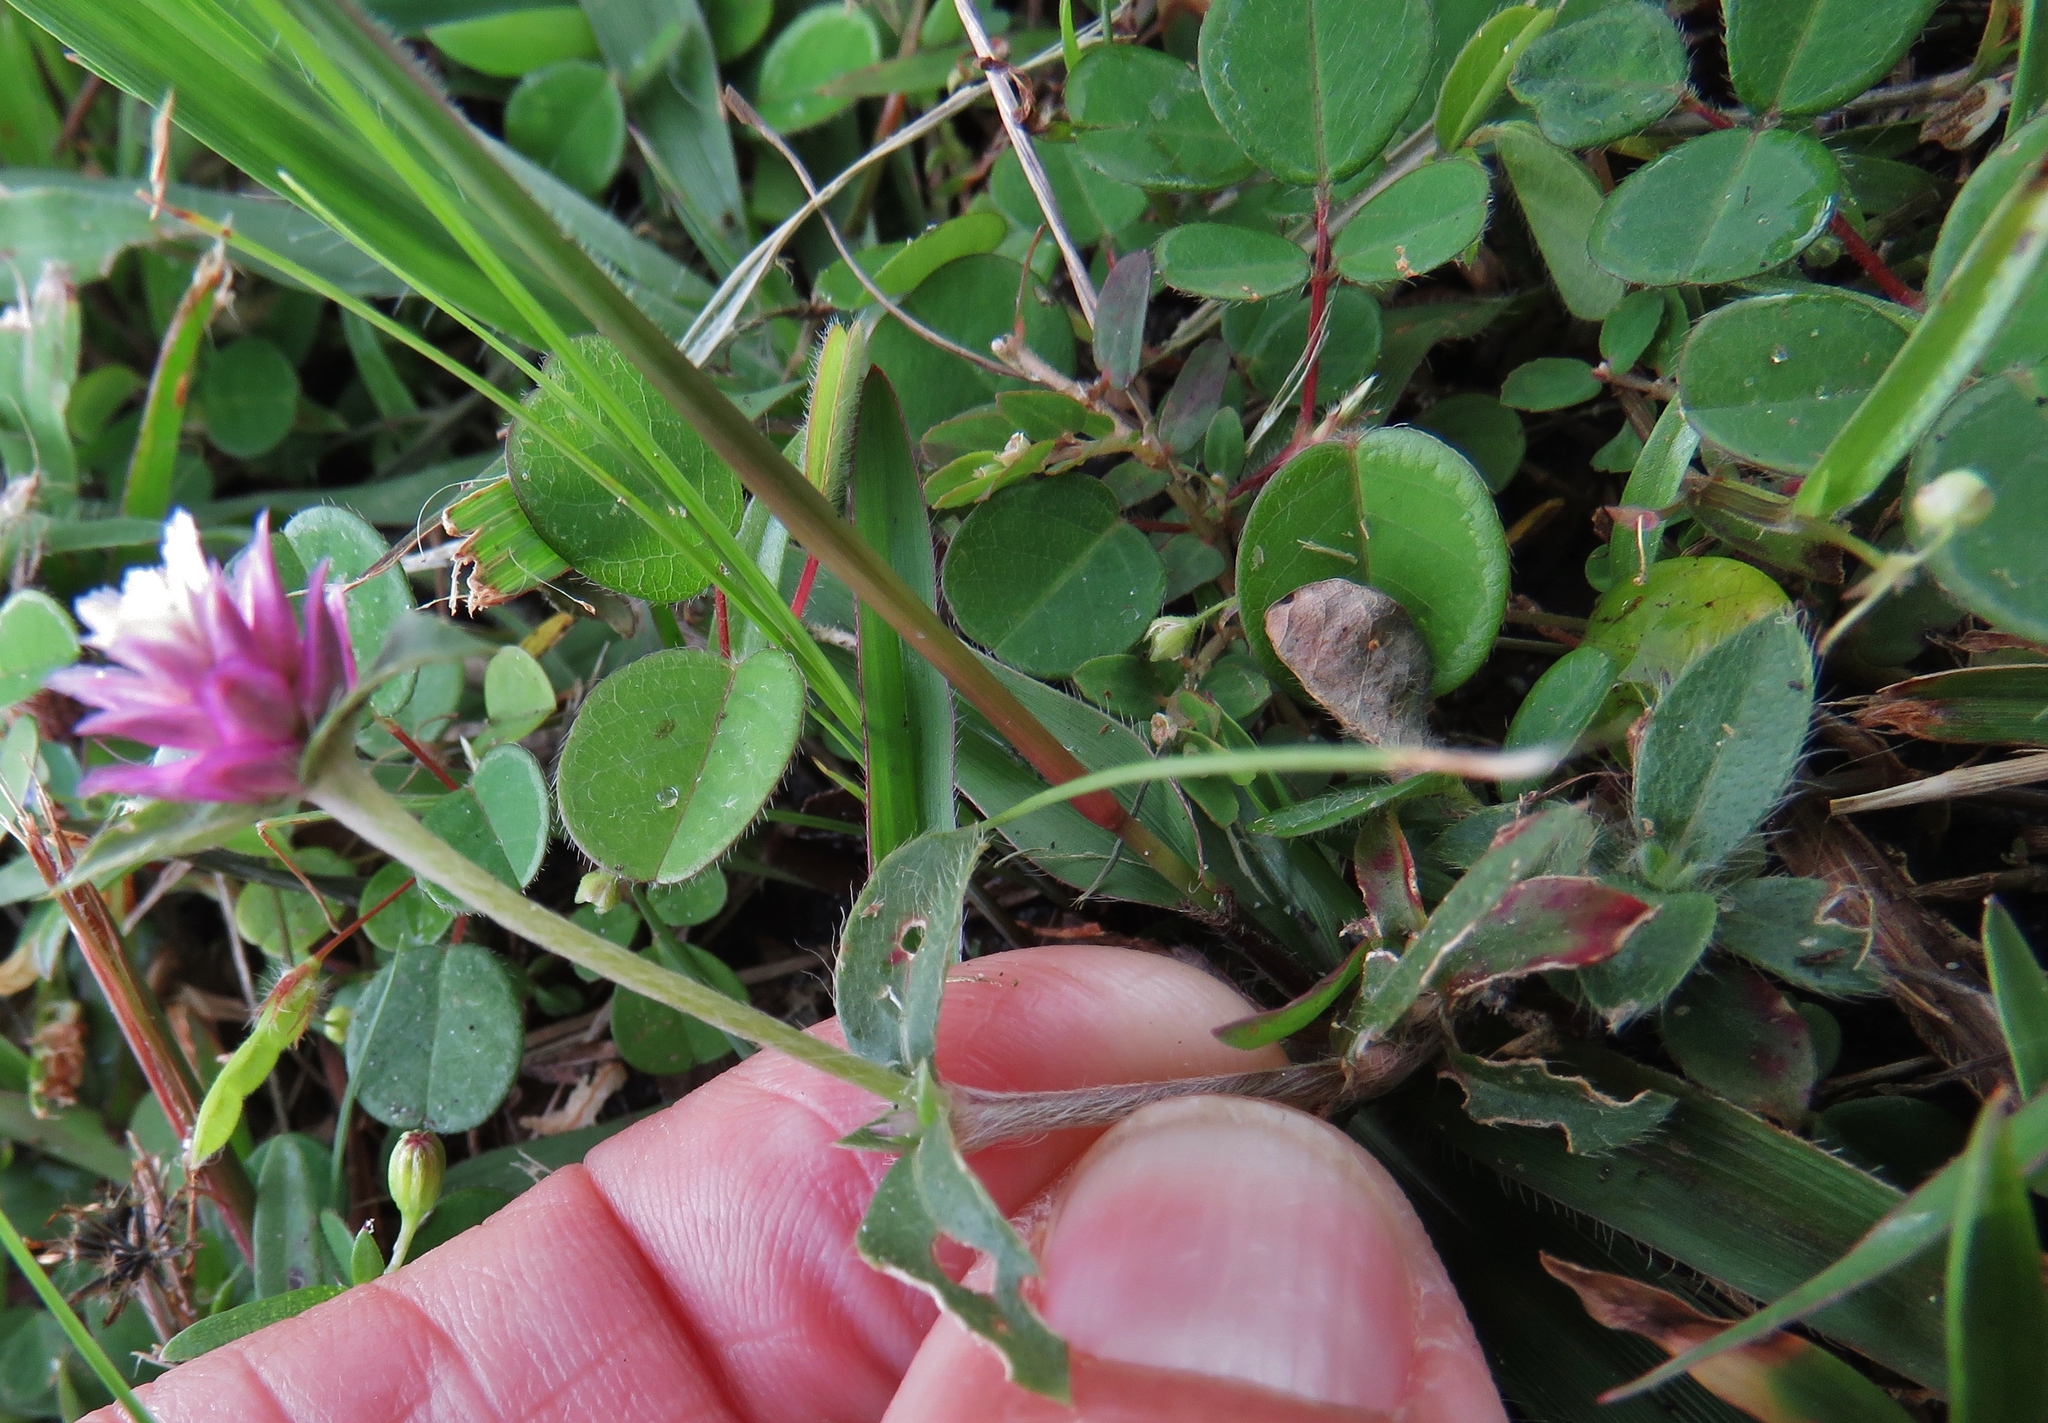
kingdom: Plantae
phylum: Tracheophyta
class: Magnoliopsida
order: Caryophyllales
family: Amaranthaceae
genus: Gomphrena
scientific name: Gomphrena serrata
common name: Arrasa con todo
